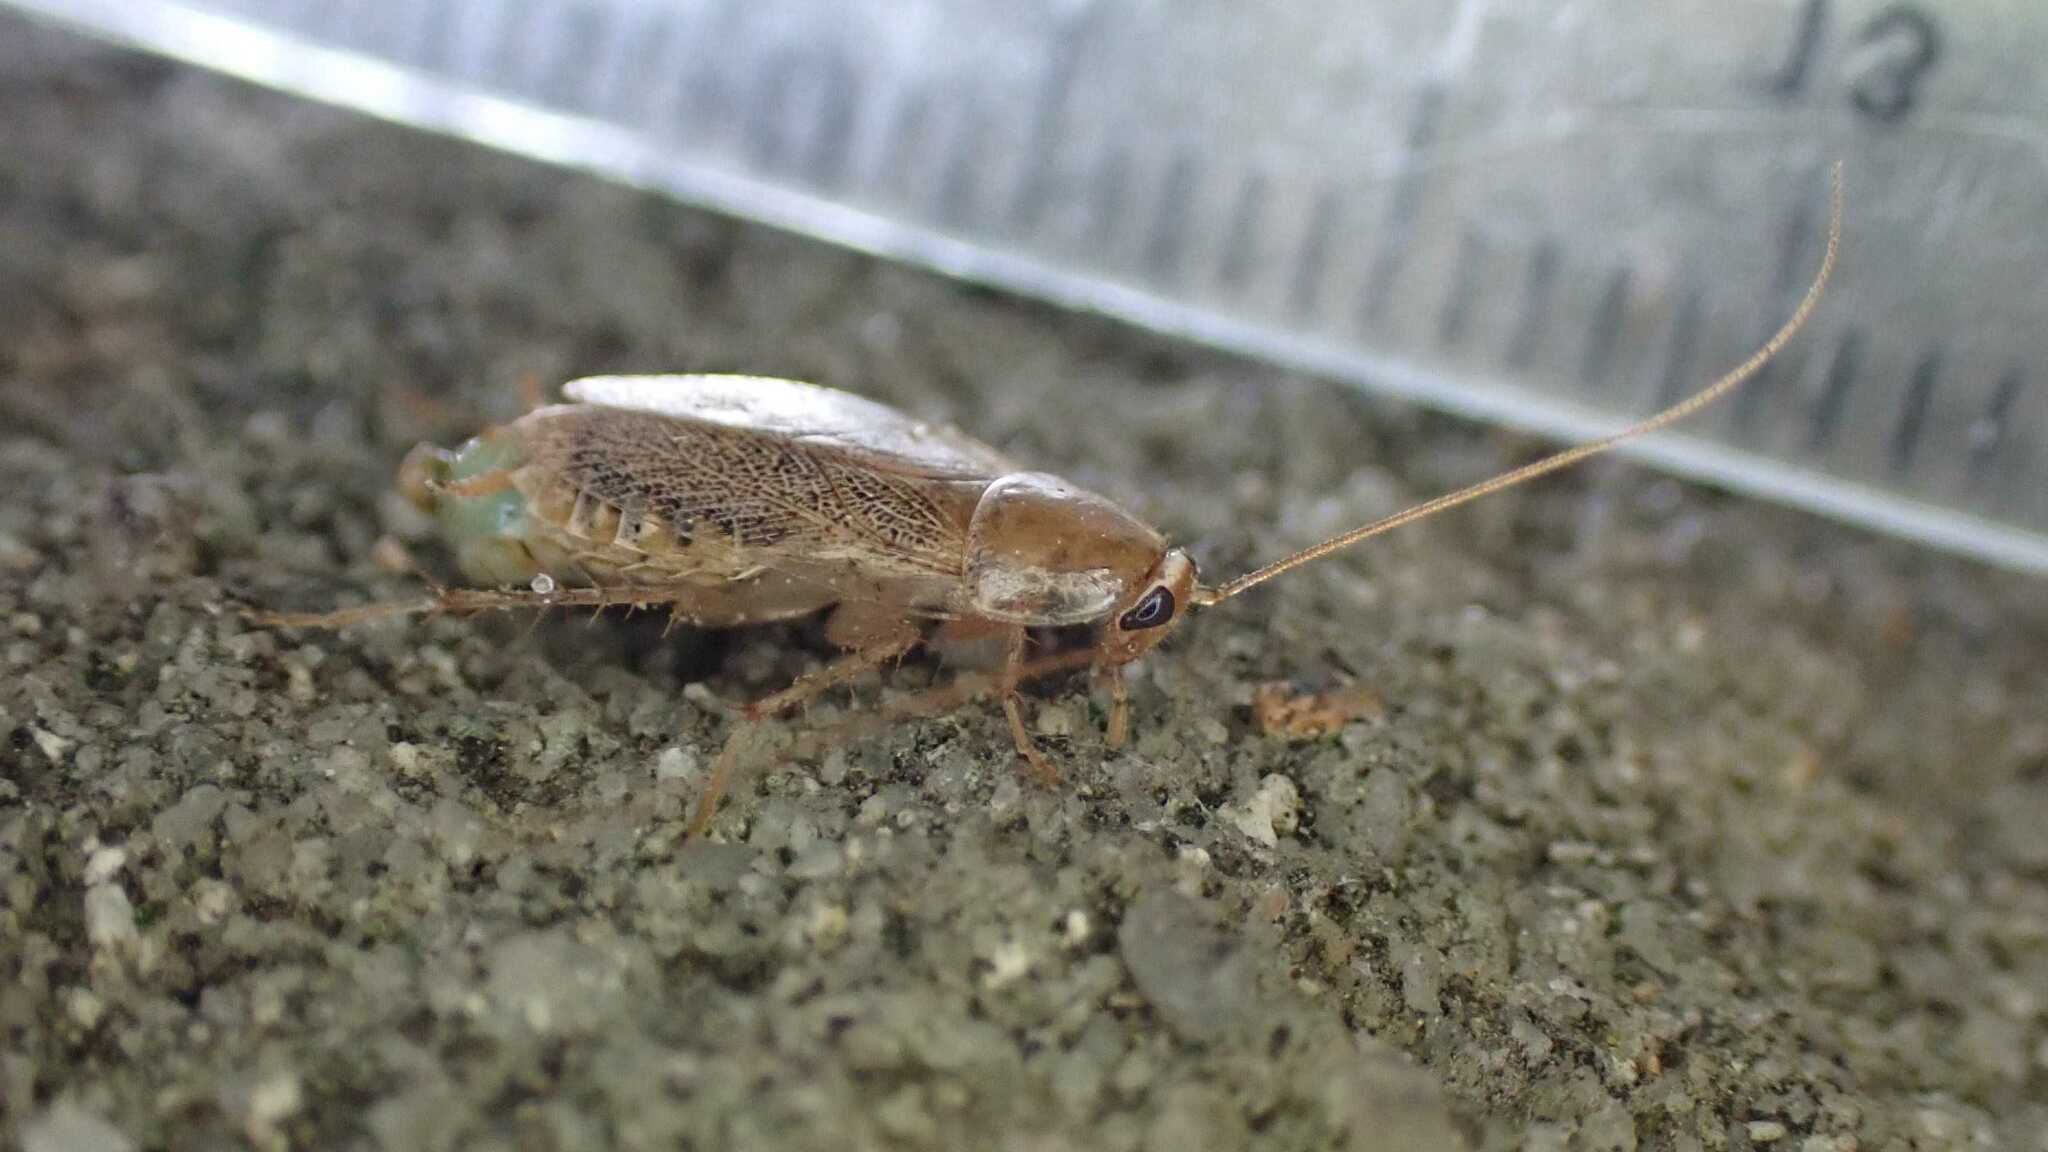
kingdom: Animalia
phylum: Arthropoda
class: Insecta
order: Blattodea
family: Ectobiidae
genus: Planuncus
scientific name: Planuncus tingitanus
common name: Variable cockroach
